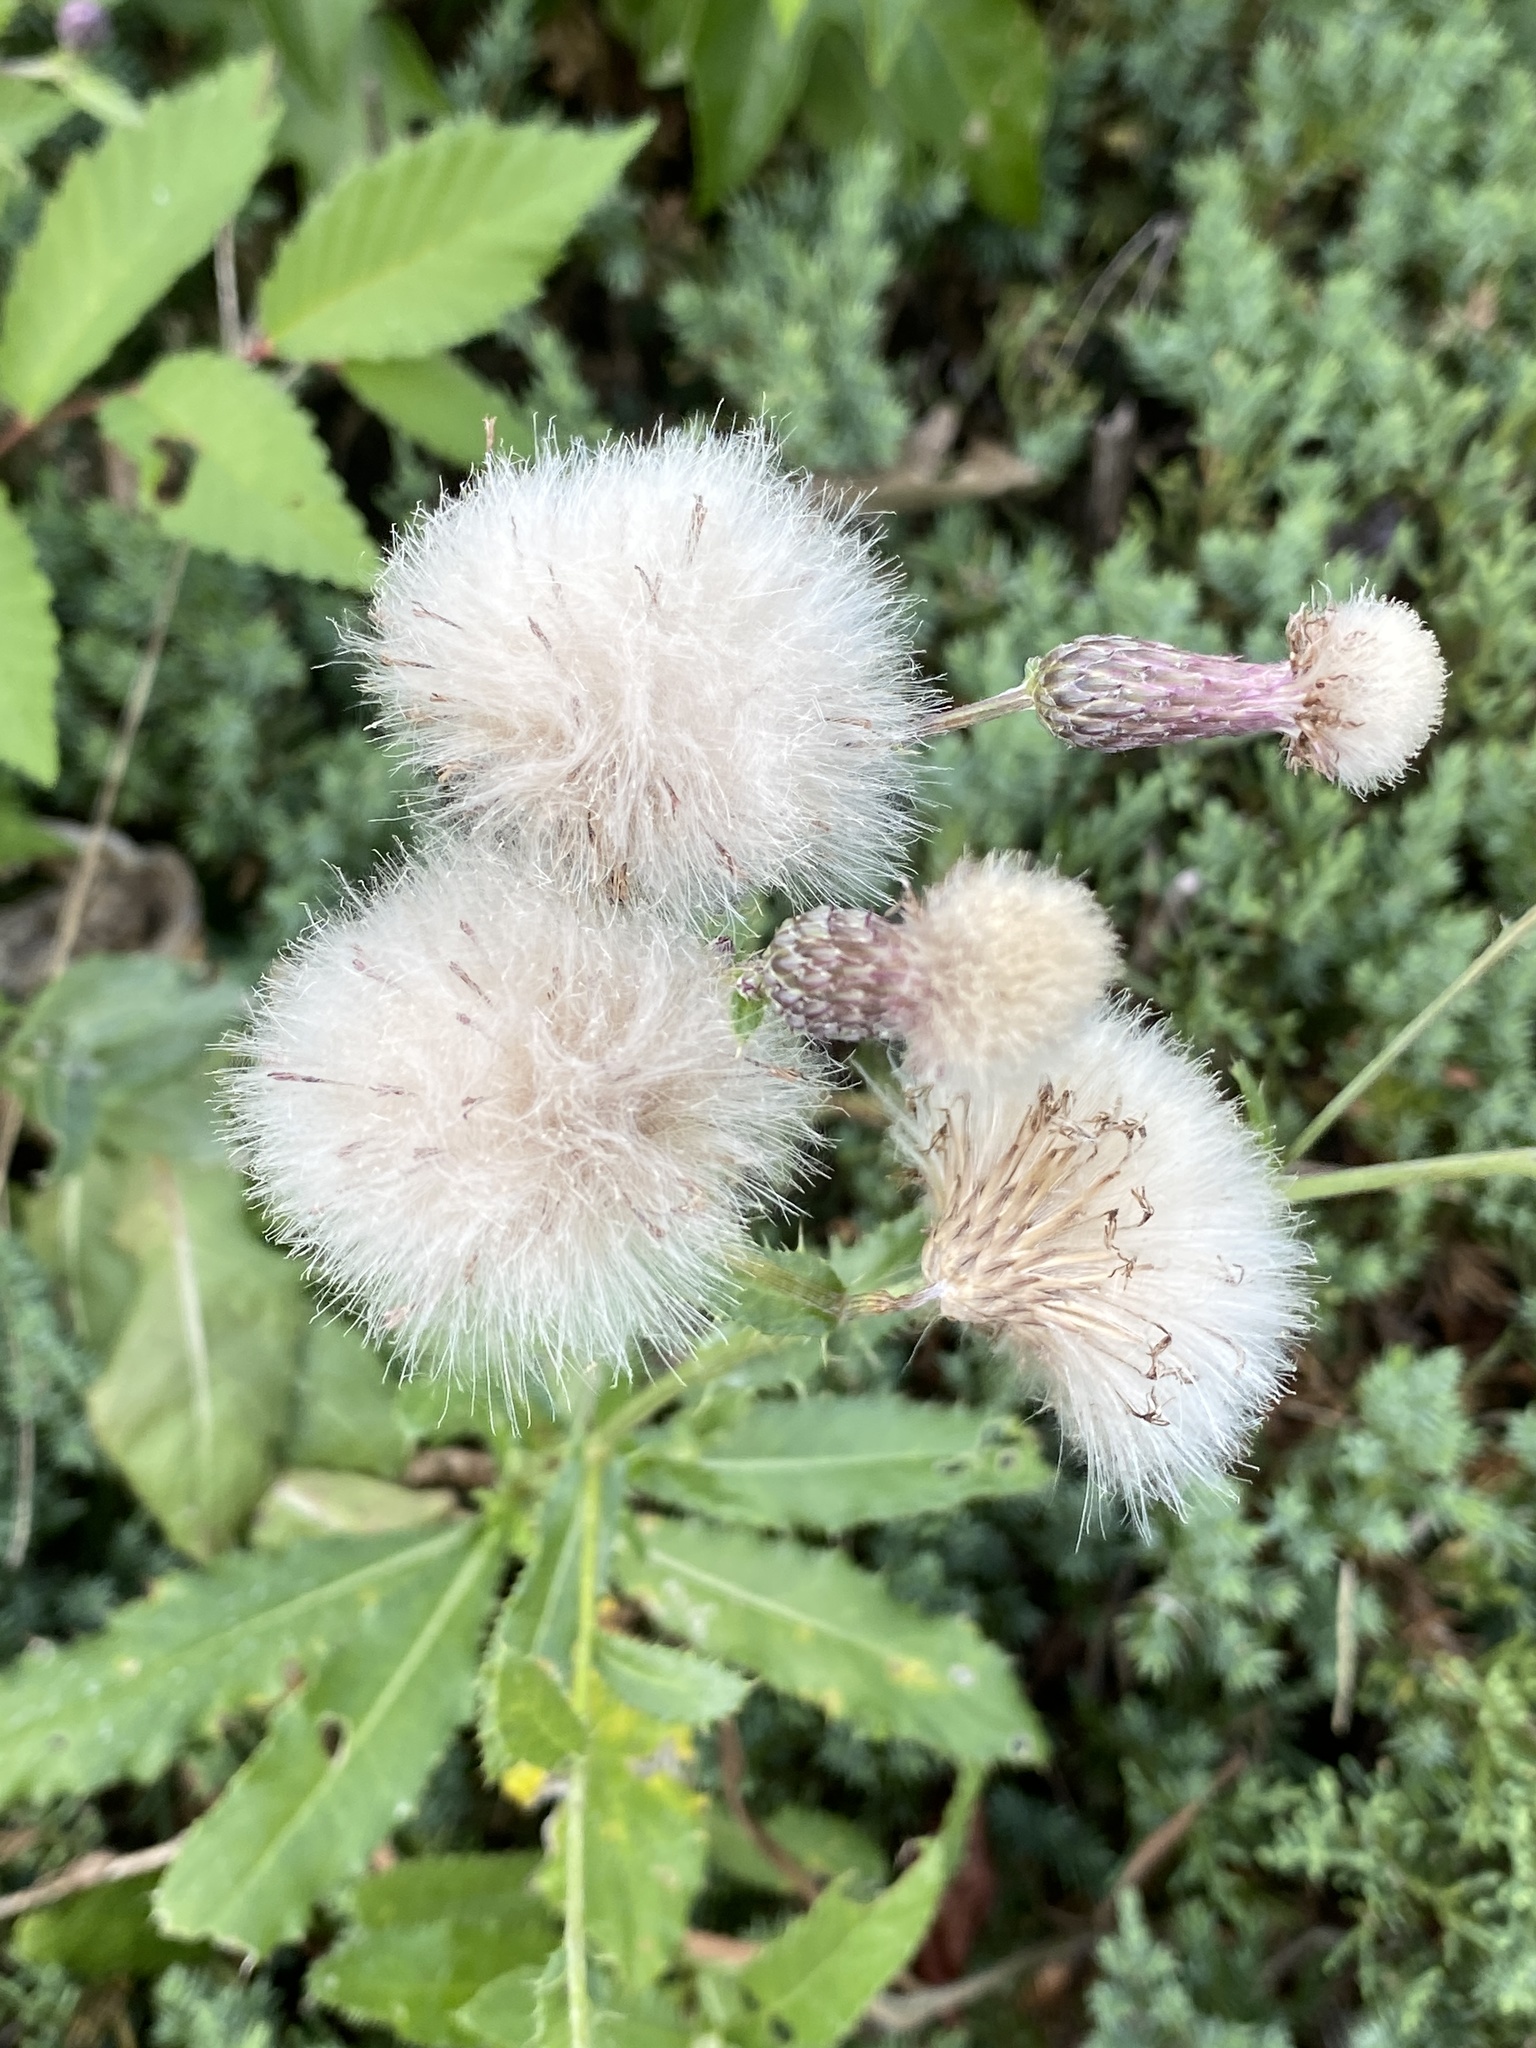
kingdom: Plantae
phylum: Tracheophyta
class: Magnoliopsida
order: Asterales
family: Asteraceae
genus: Cirsium
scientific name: Cirsium arvense
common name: Creeping thistle
